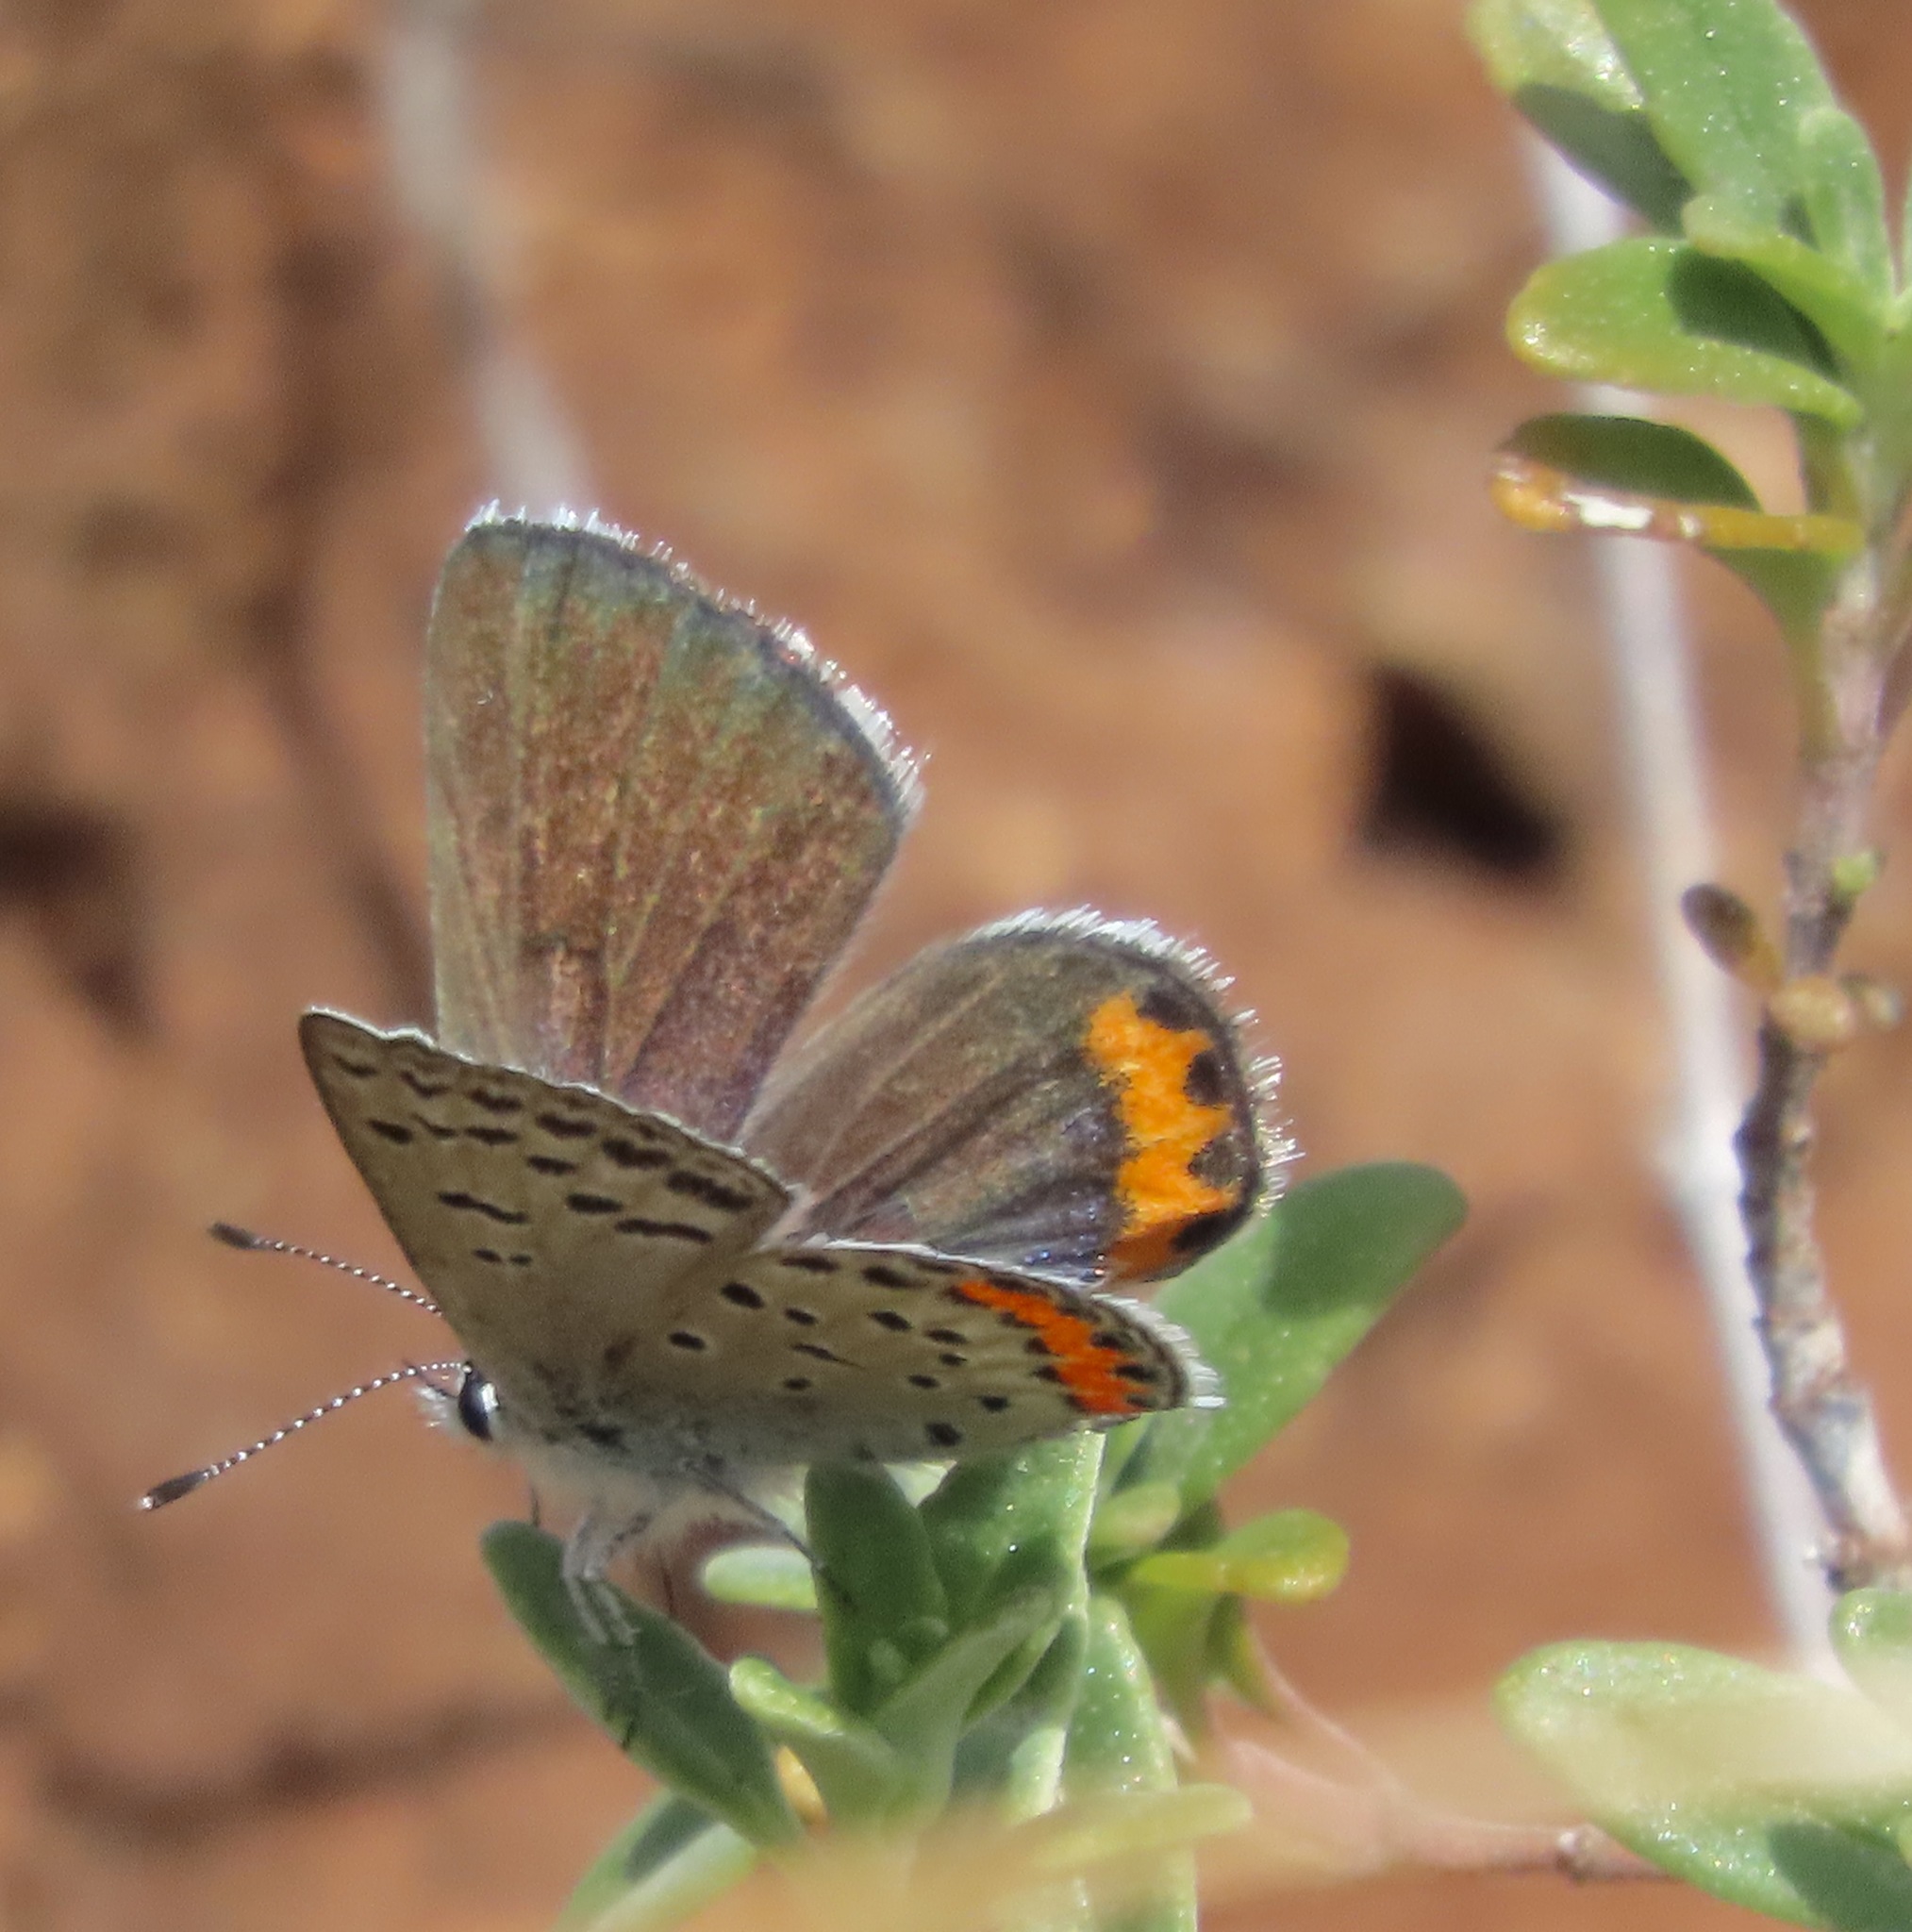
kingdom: Animalia
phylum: Arthropoda
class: Insecta
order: Lepidoptera
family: Lycaenidae
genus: Icaricia
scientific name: Icaricia acmon
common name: Acmon blue
